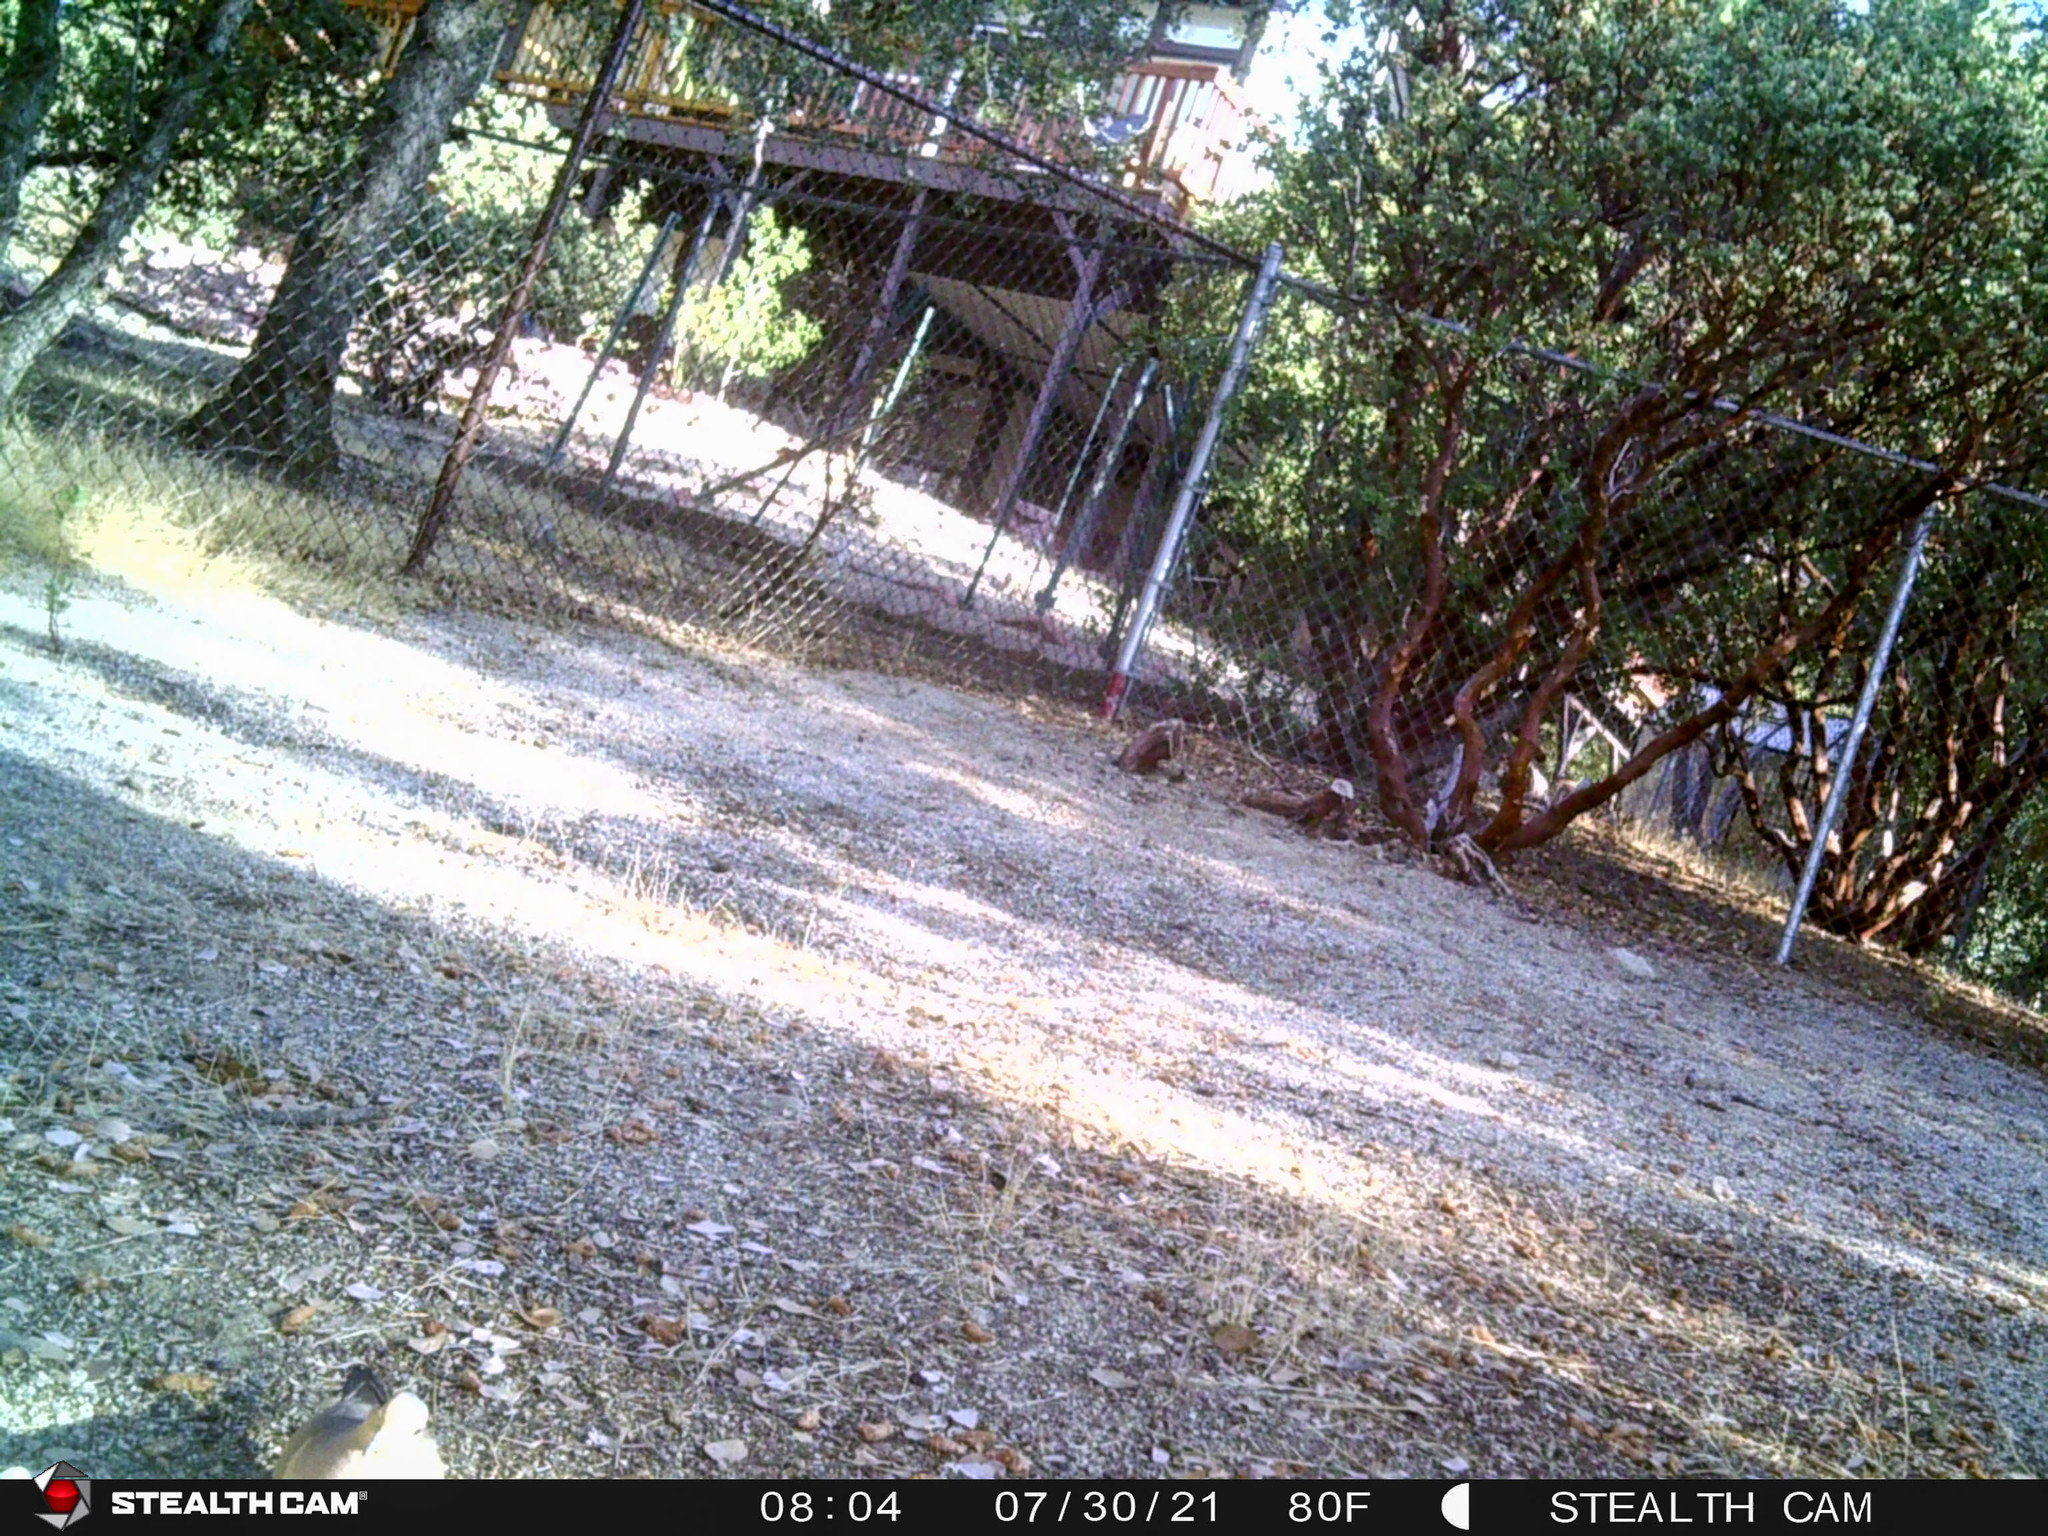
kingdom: Animalia
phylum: Chordata
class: Aves
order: Columbiformes
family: Columbidae
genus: Zenaida
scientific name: Zenaida macroura
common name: Mourning dove
